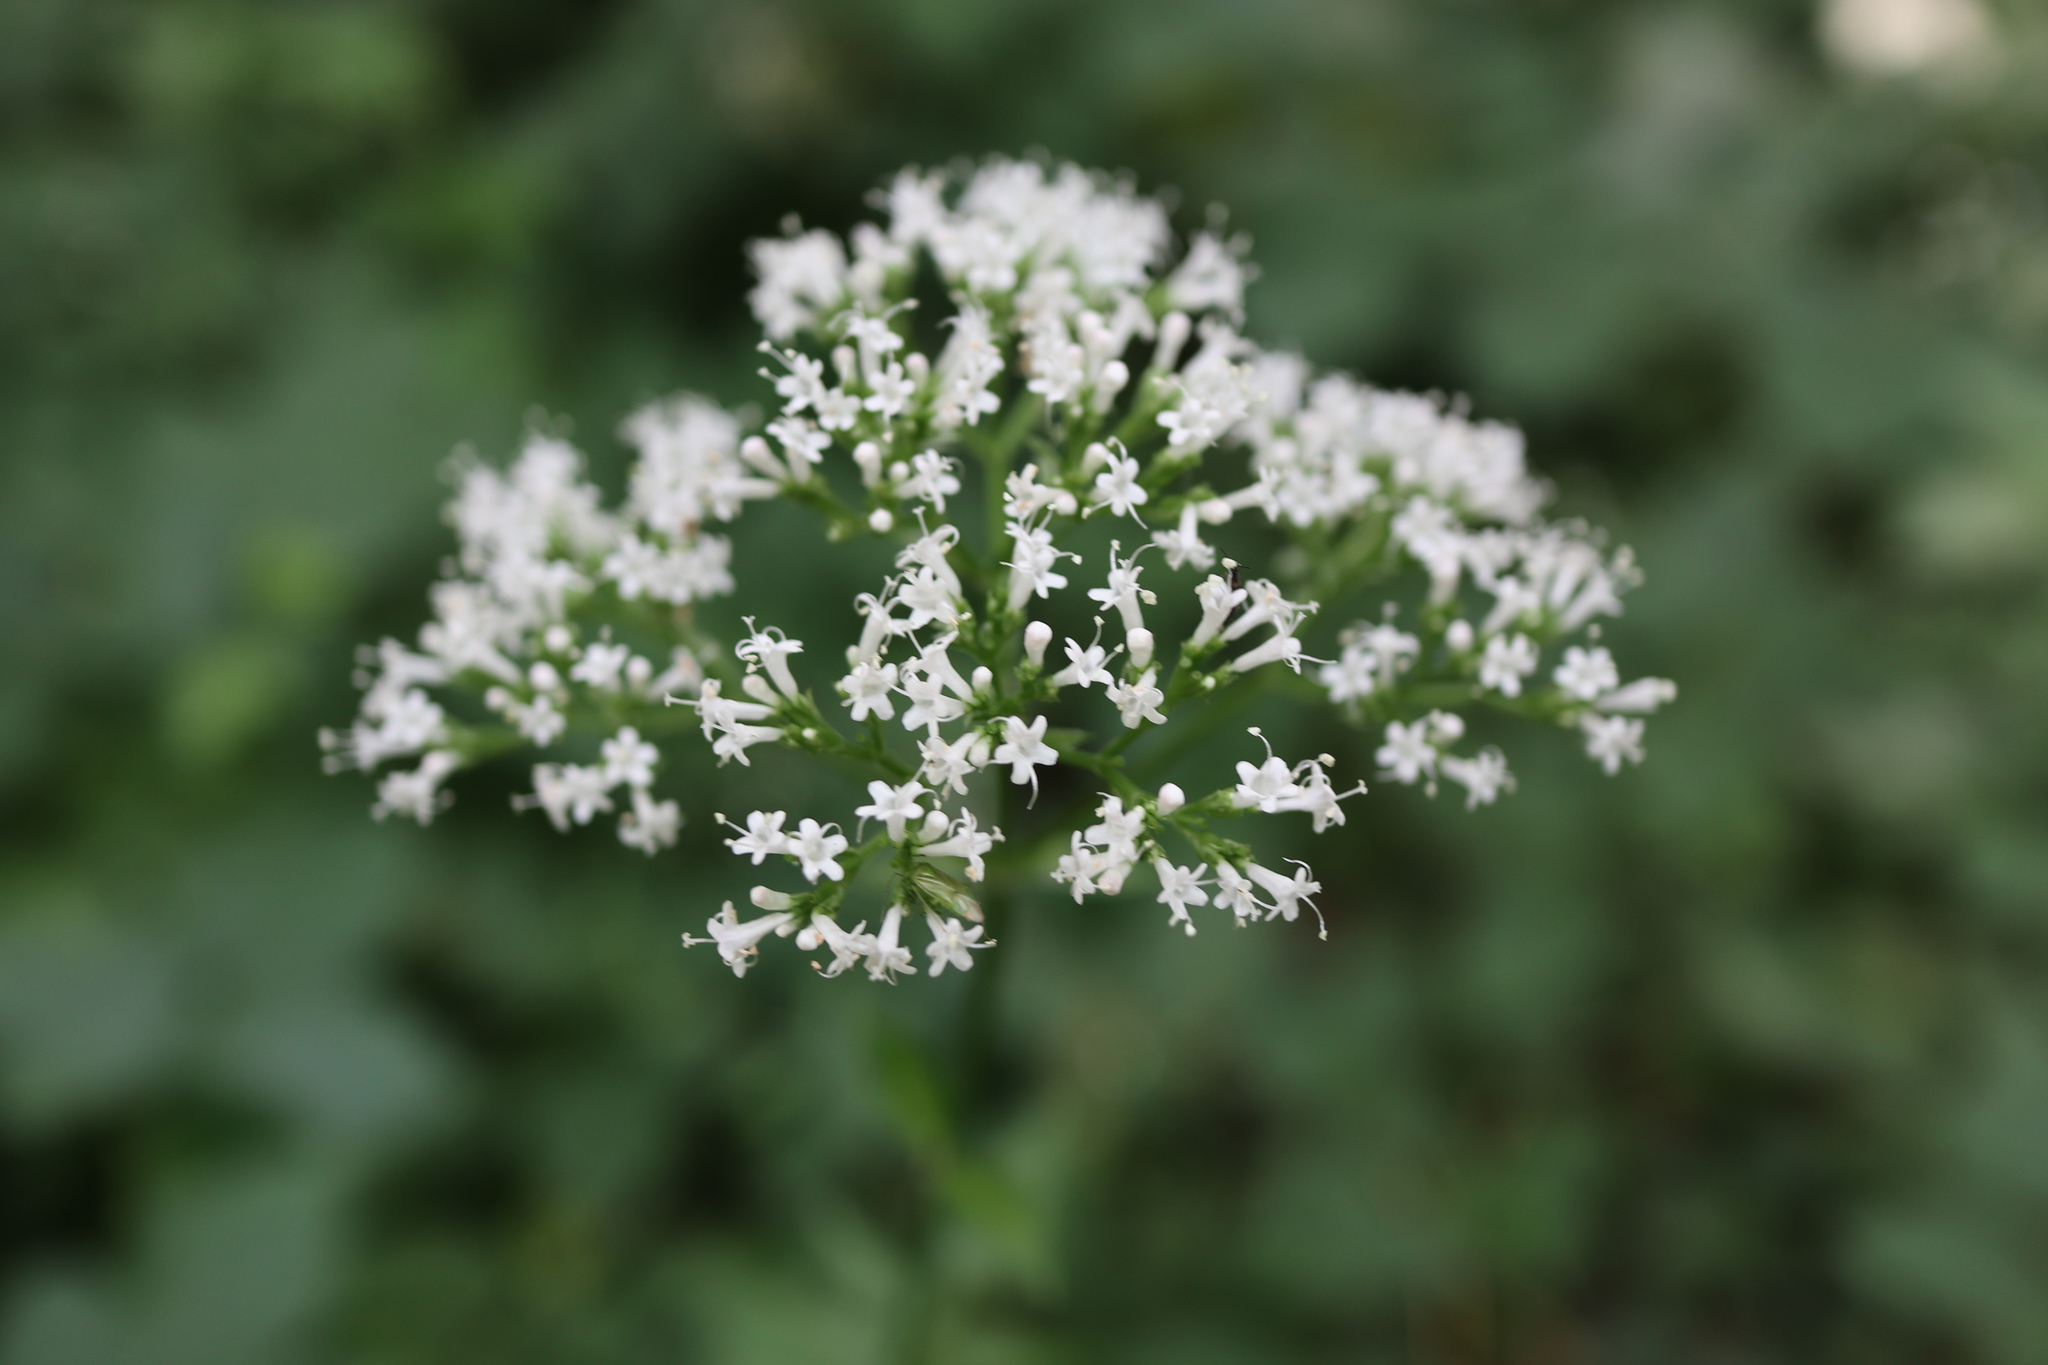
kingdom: Plantae
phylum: Tracheophyta
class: Magnoliopsida
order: Dipsacales
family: Caprifoliaceae
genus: Valeriana
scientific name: Valeriana officinalis
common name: Common valerian
